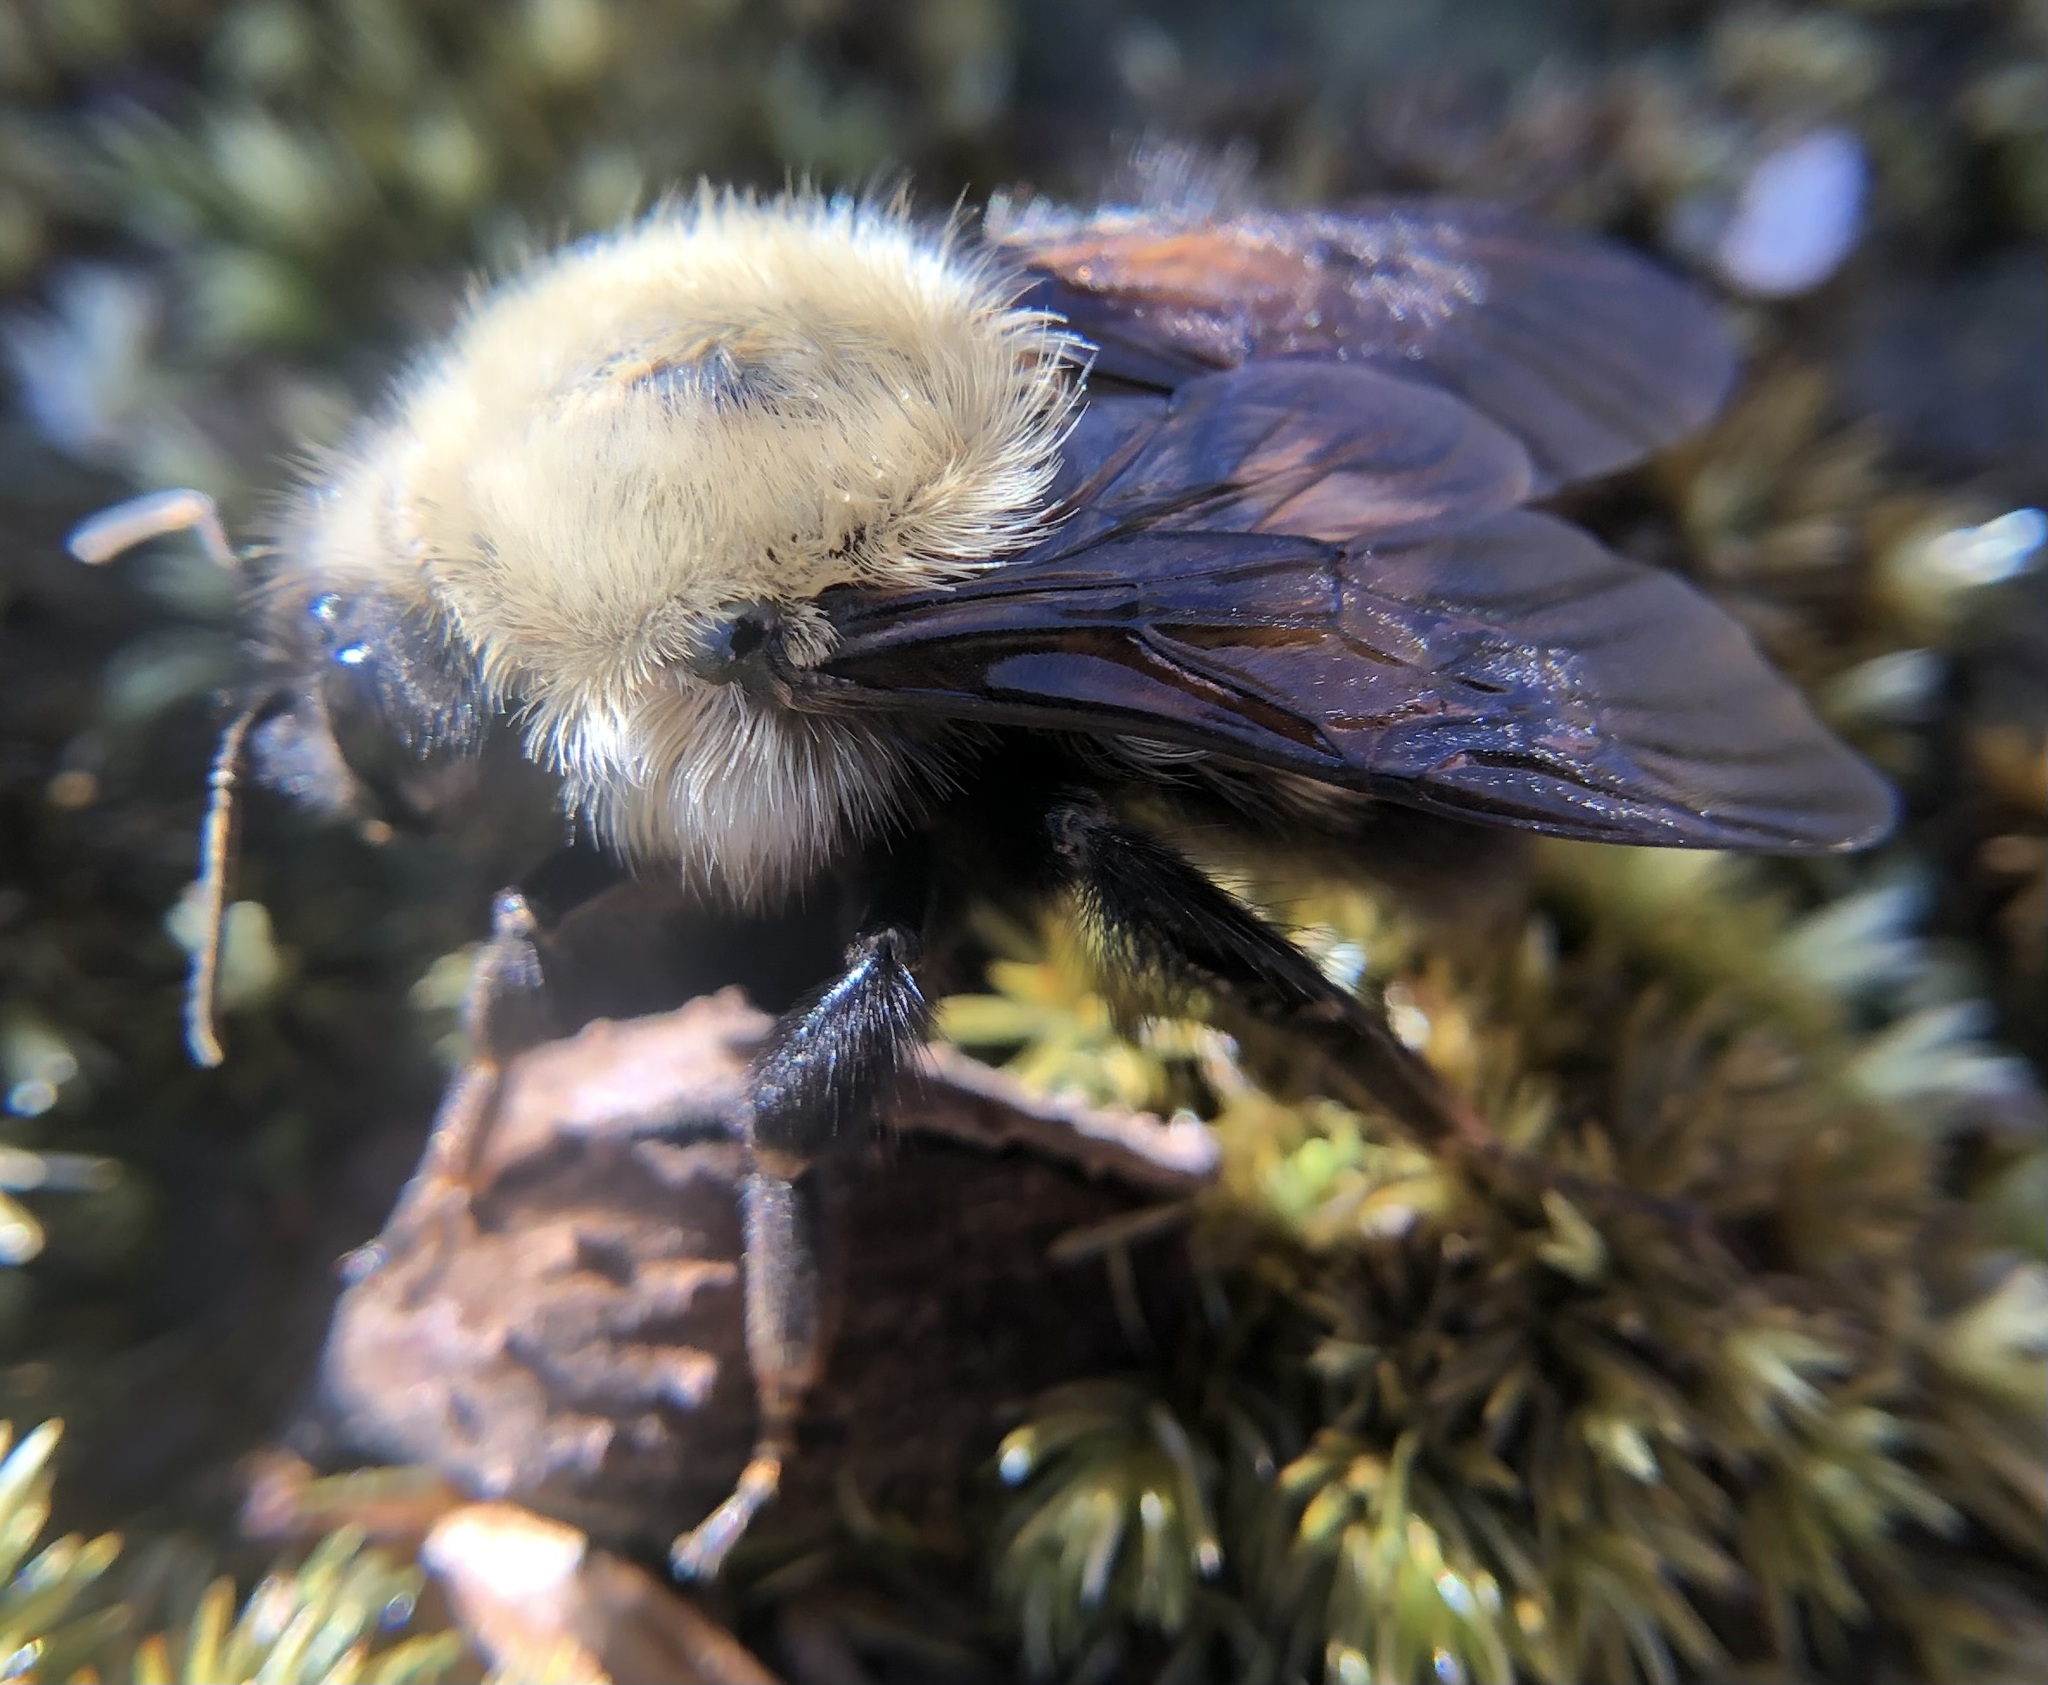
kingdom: Animalia
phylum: Arthropoda
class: Insecta
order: Hymenoptera
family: Apidae
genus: Bombus
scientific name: Bombus perplexus
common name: Confusing bumble bee
